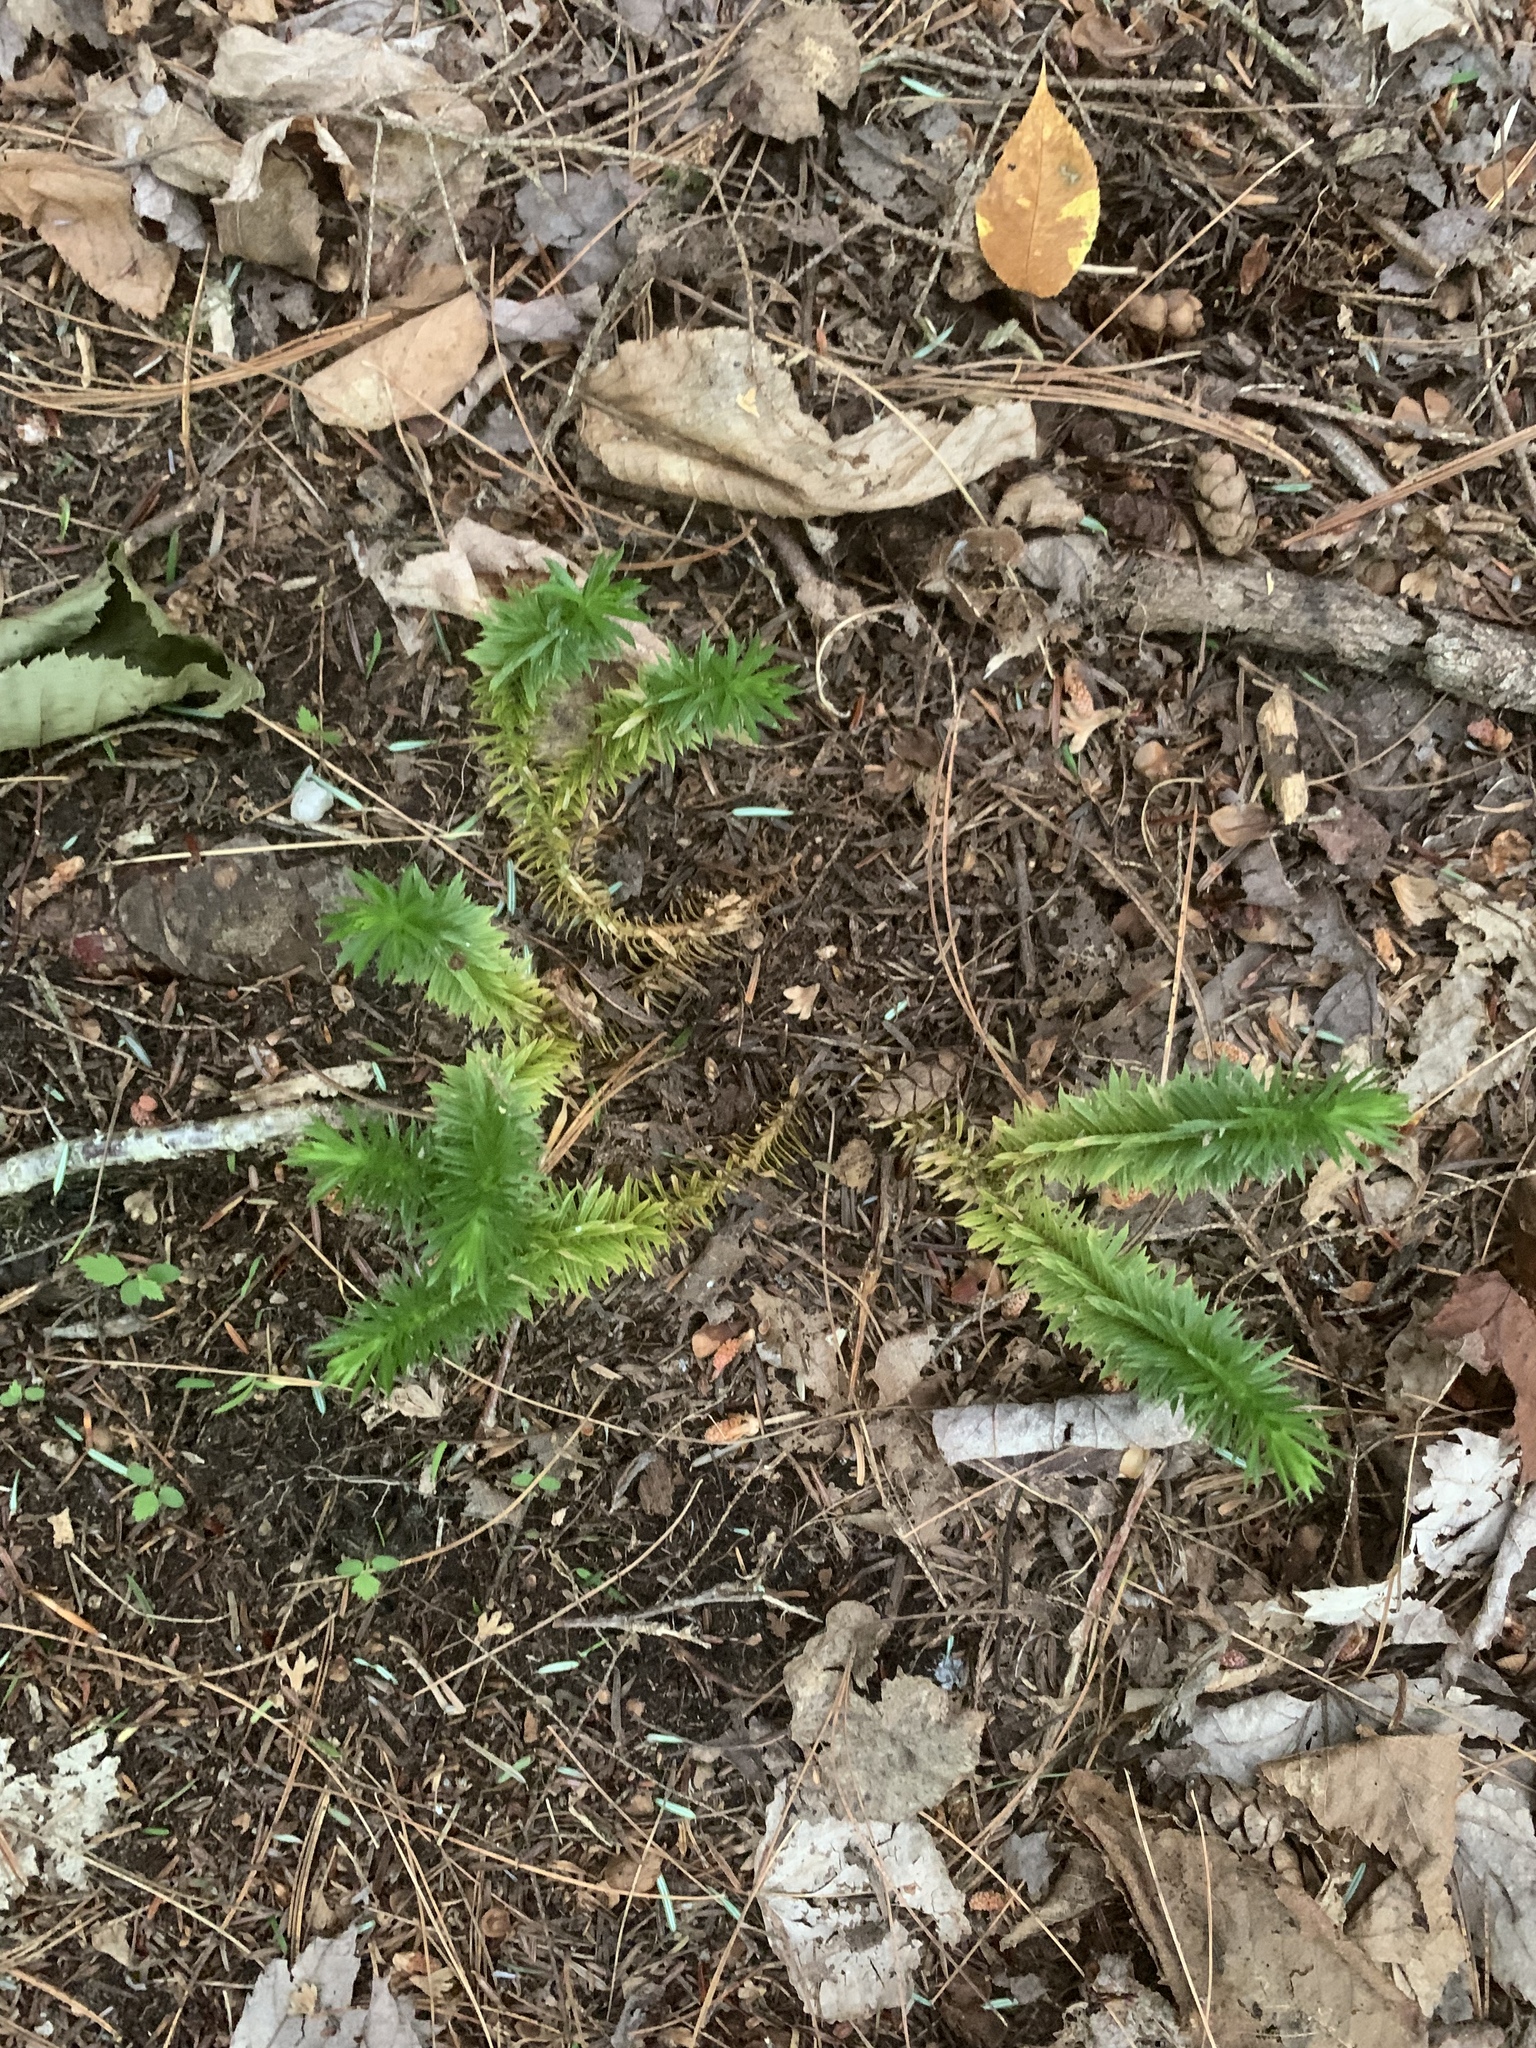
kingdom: Plantae
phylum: Tracheophyta
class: Lycopodiopsida
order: Lycopodiales
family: Lycopodiaceae
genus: Huperzia
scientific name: Huperzia lucidula
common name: Shining clubmoss
